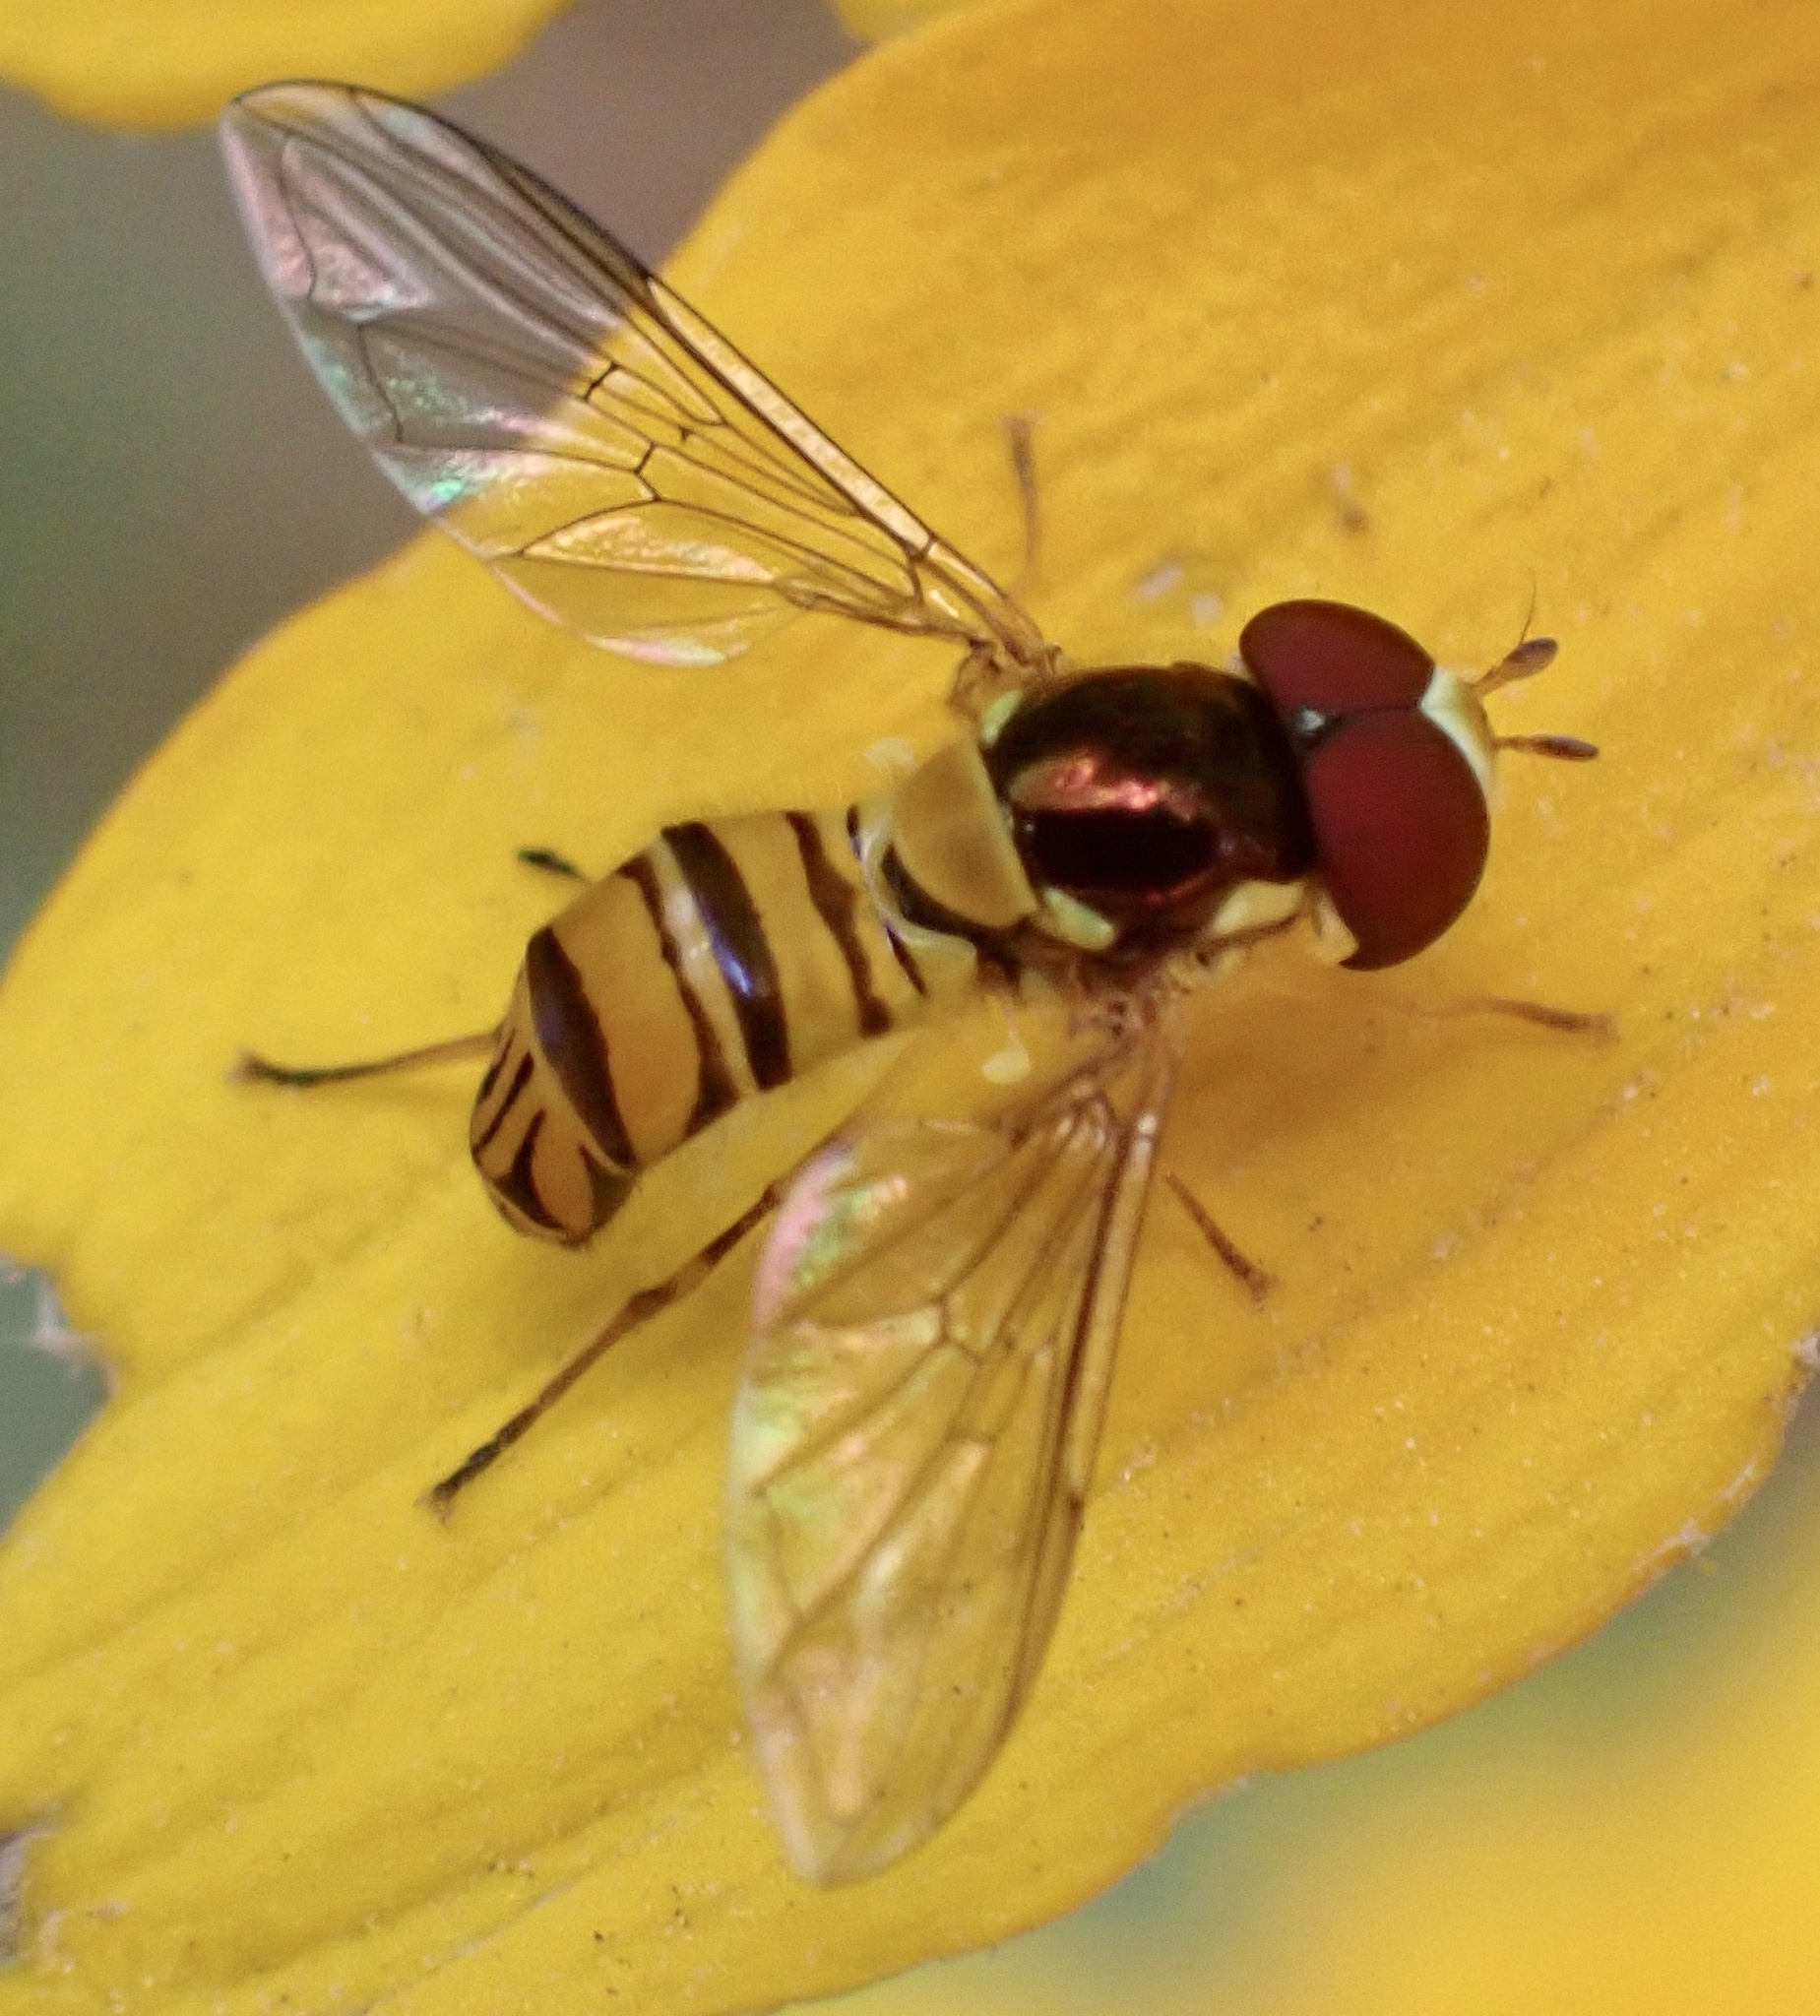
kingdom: Animalia
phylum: Arthropoda
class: Insecta
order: Diptera
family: Syrphidae
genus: Allograpta
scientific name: Allograpta obliqua
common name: Common oblique syrphid
